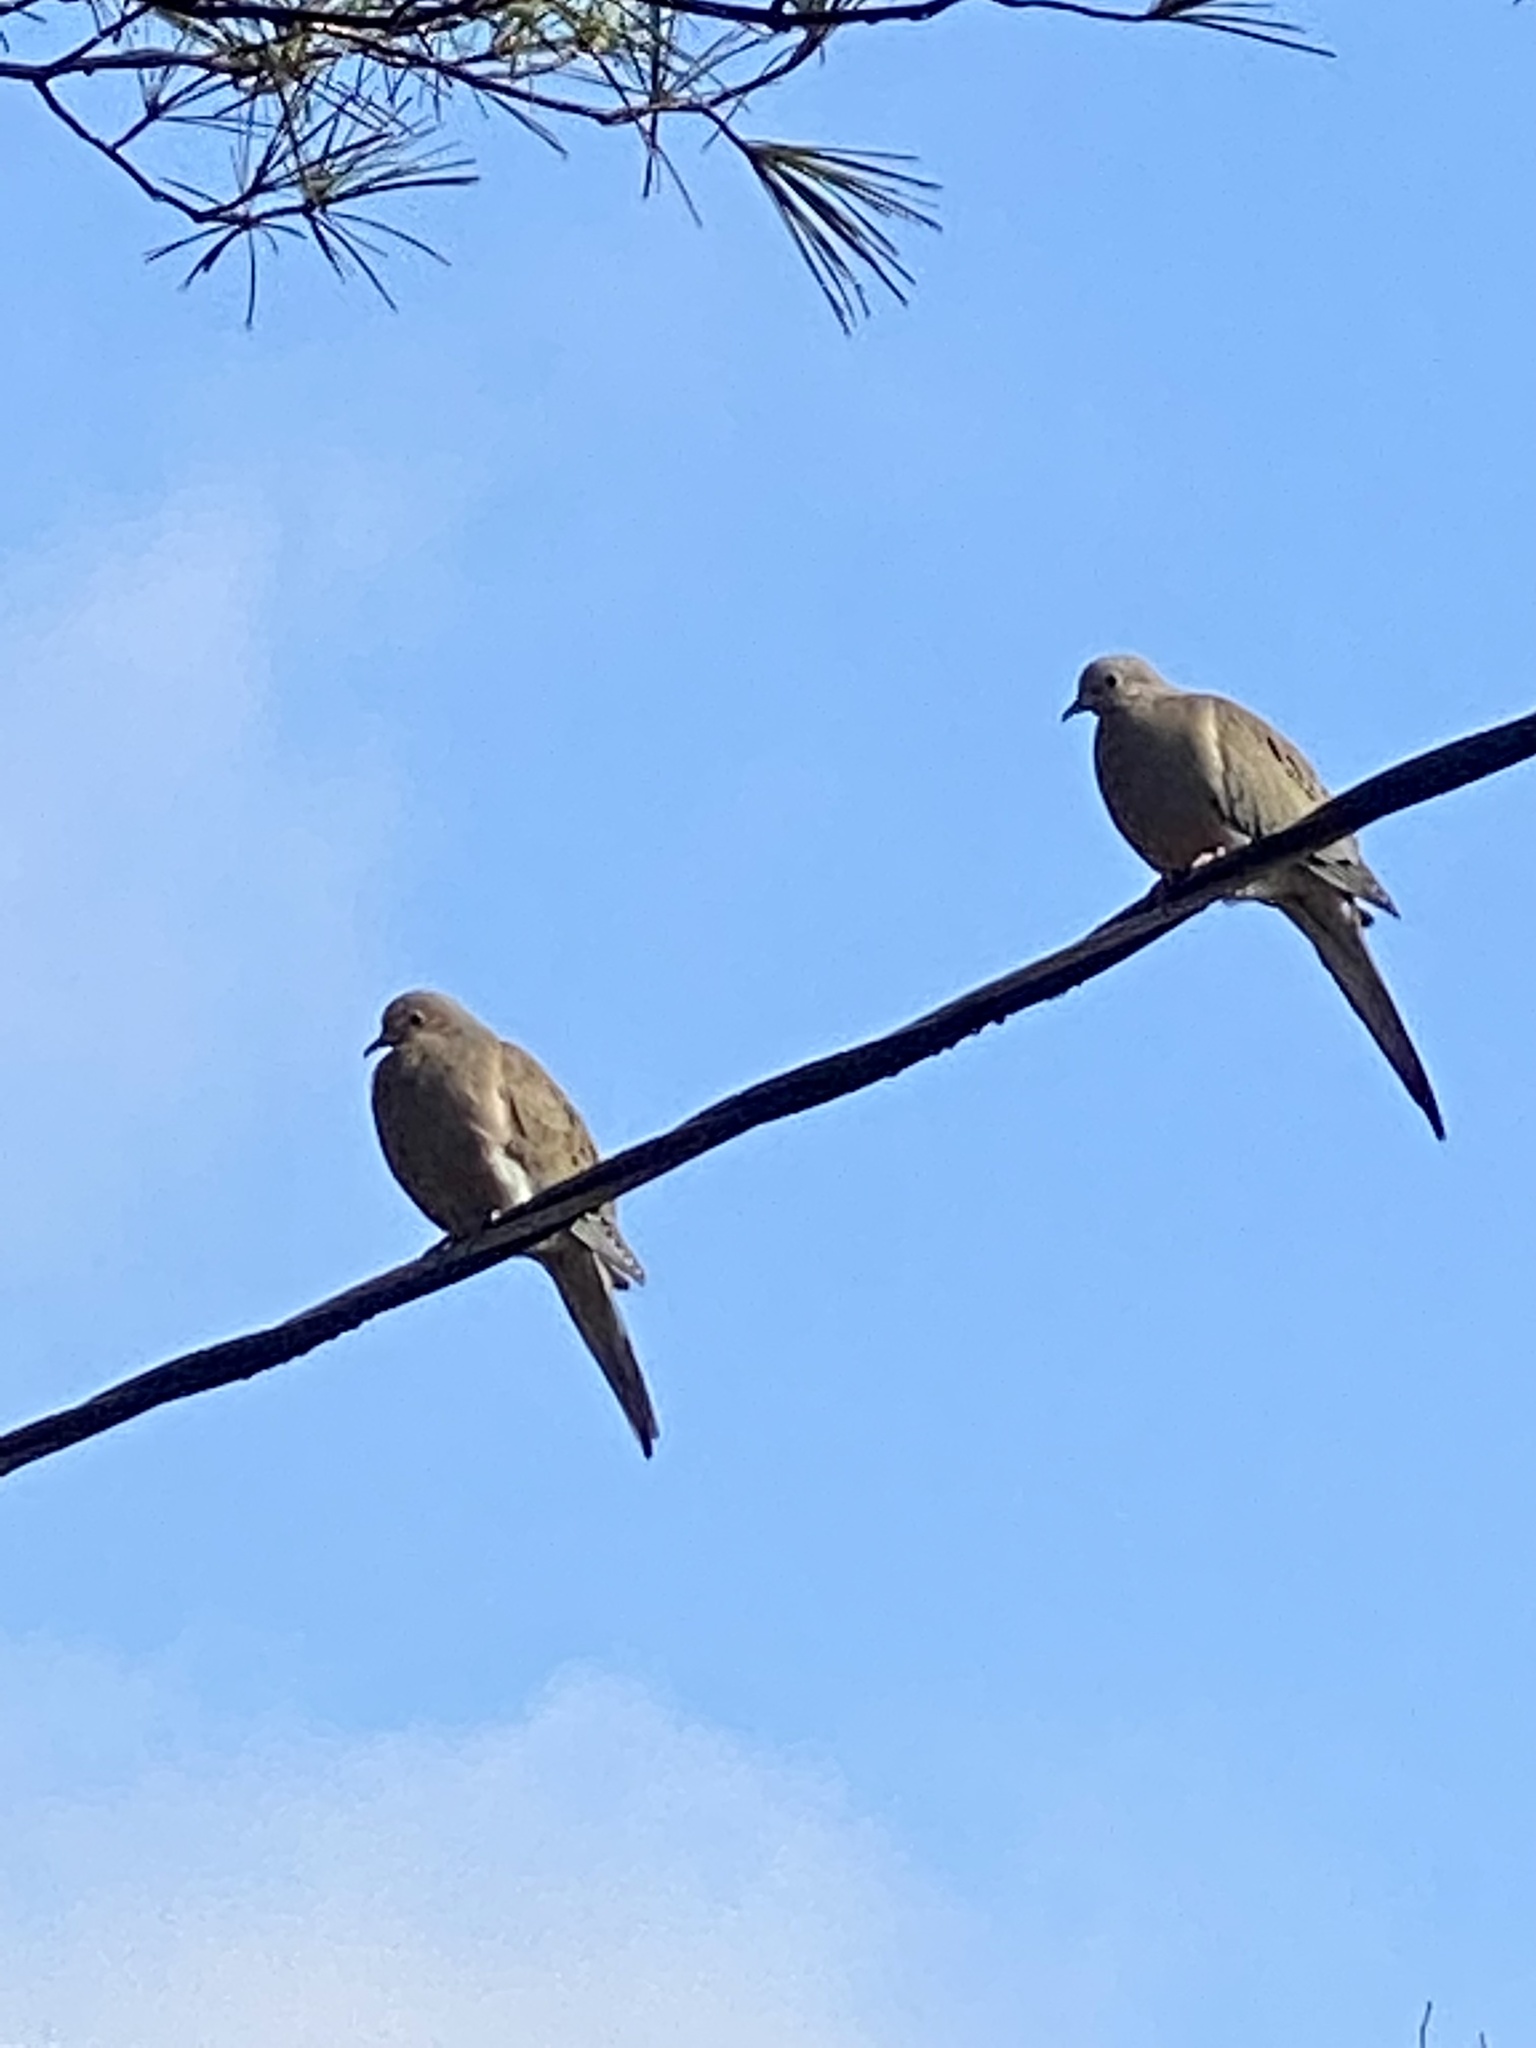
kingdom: Animalia
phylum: Chordata
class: Aves
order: Columbiformes
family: Columbidae
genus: Zenaida
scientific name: Zenaida macroura
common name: Mourning dove
